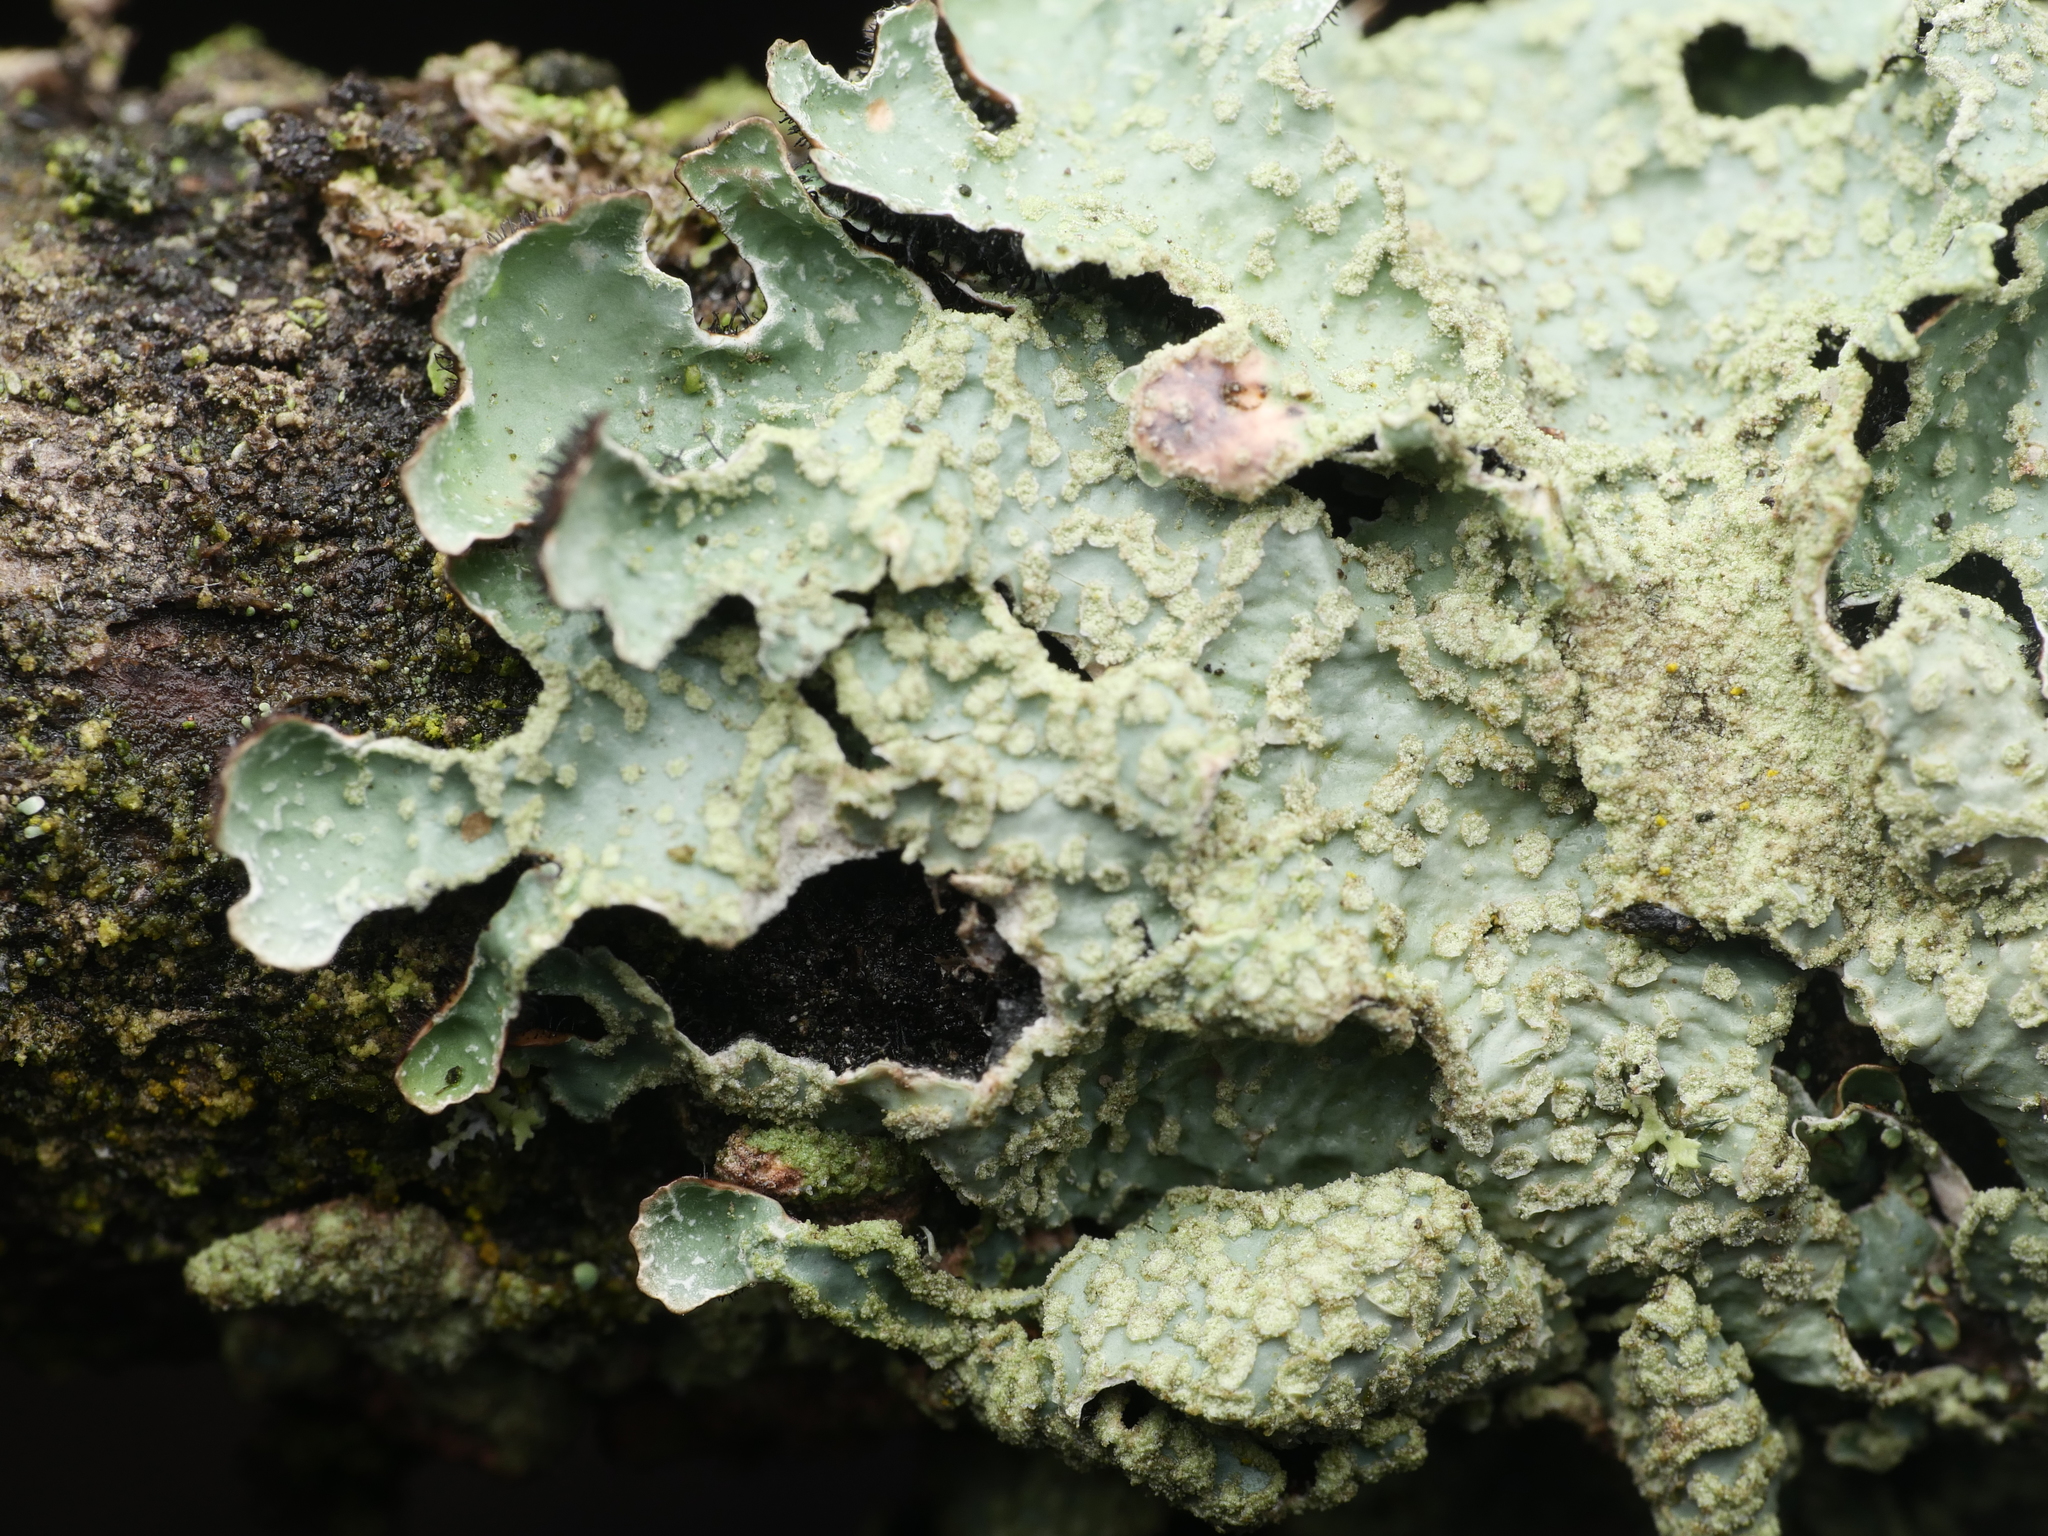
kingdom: Fungi
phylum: Ascomycota
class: Lecanoromycetes
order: Lecanorales
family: Parmeliaceae
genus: Parmelia
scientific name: Parmelia sulcata
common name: Netted shield lichen
